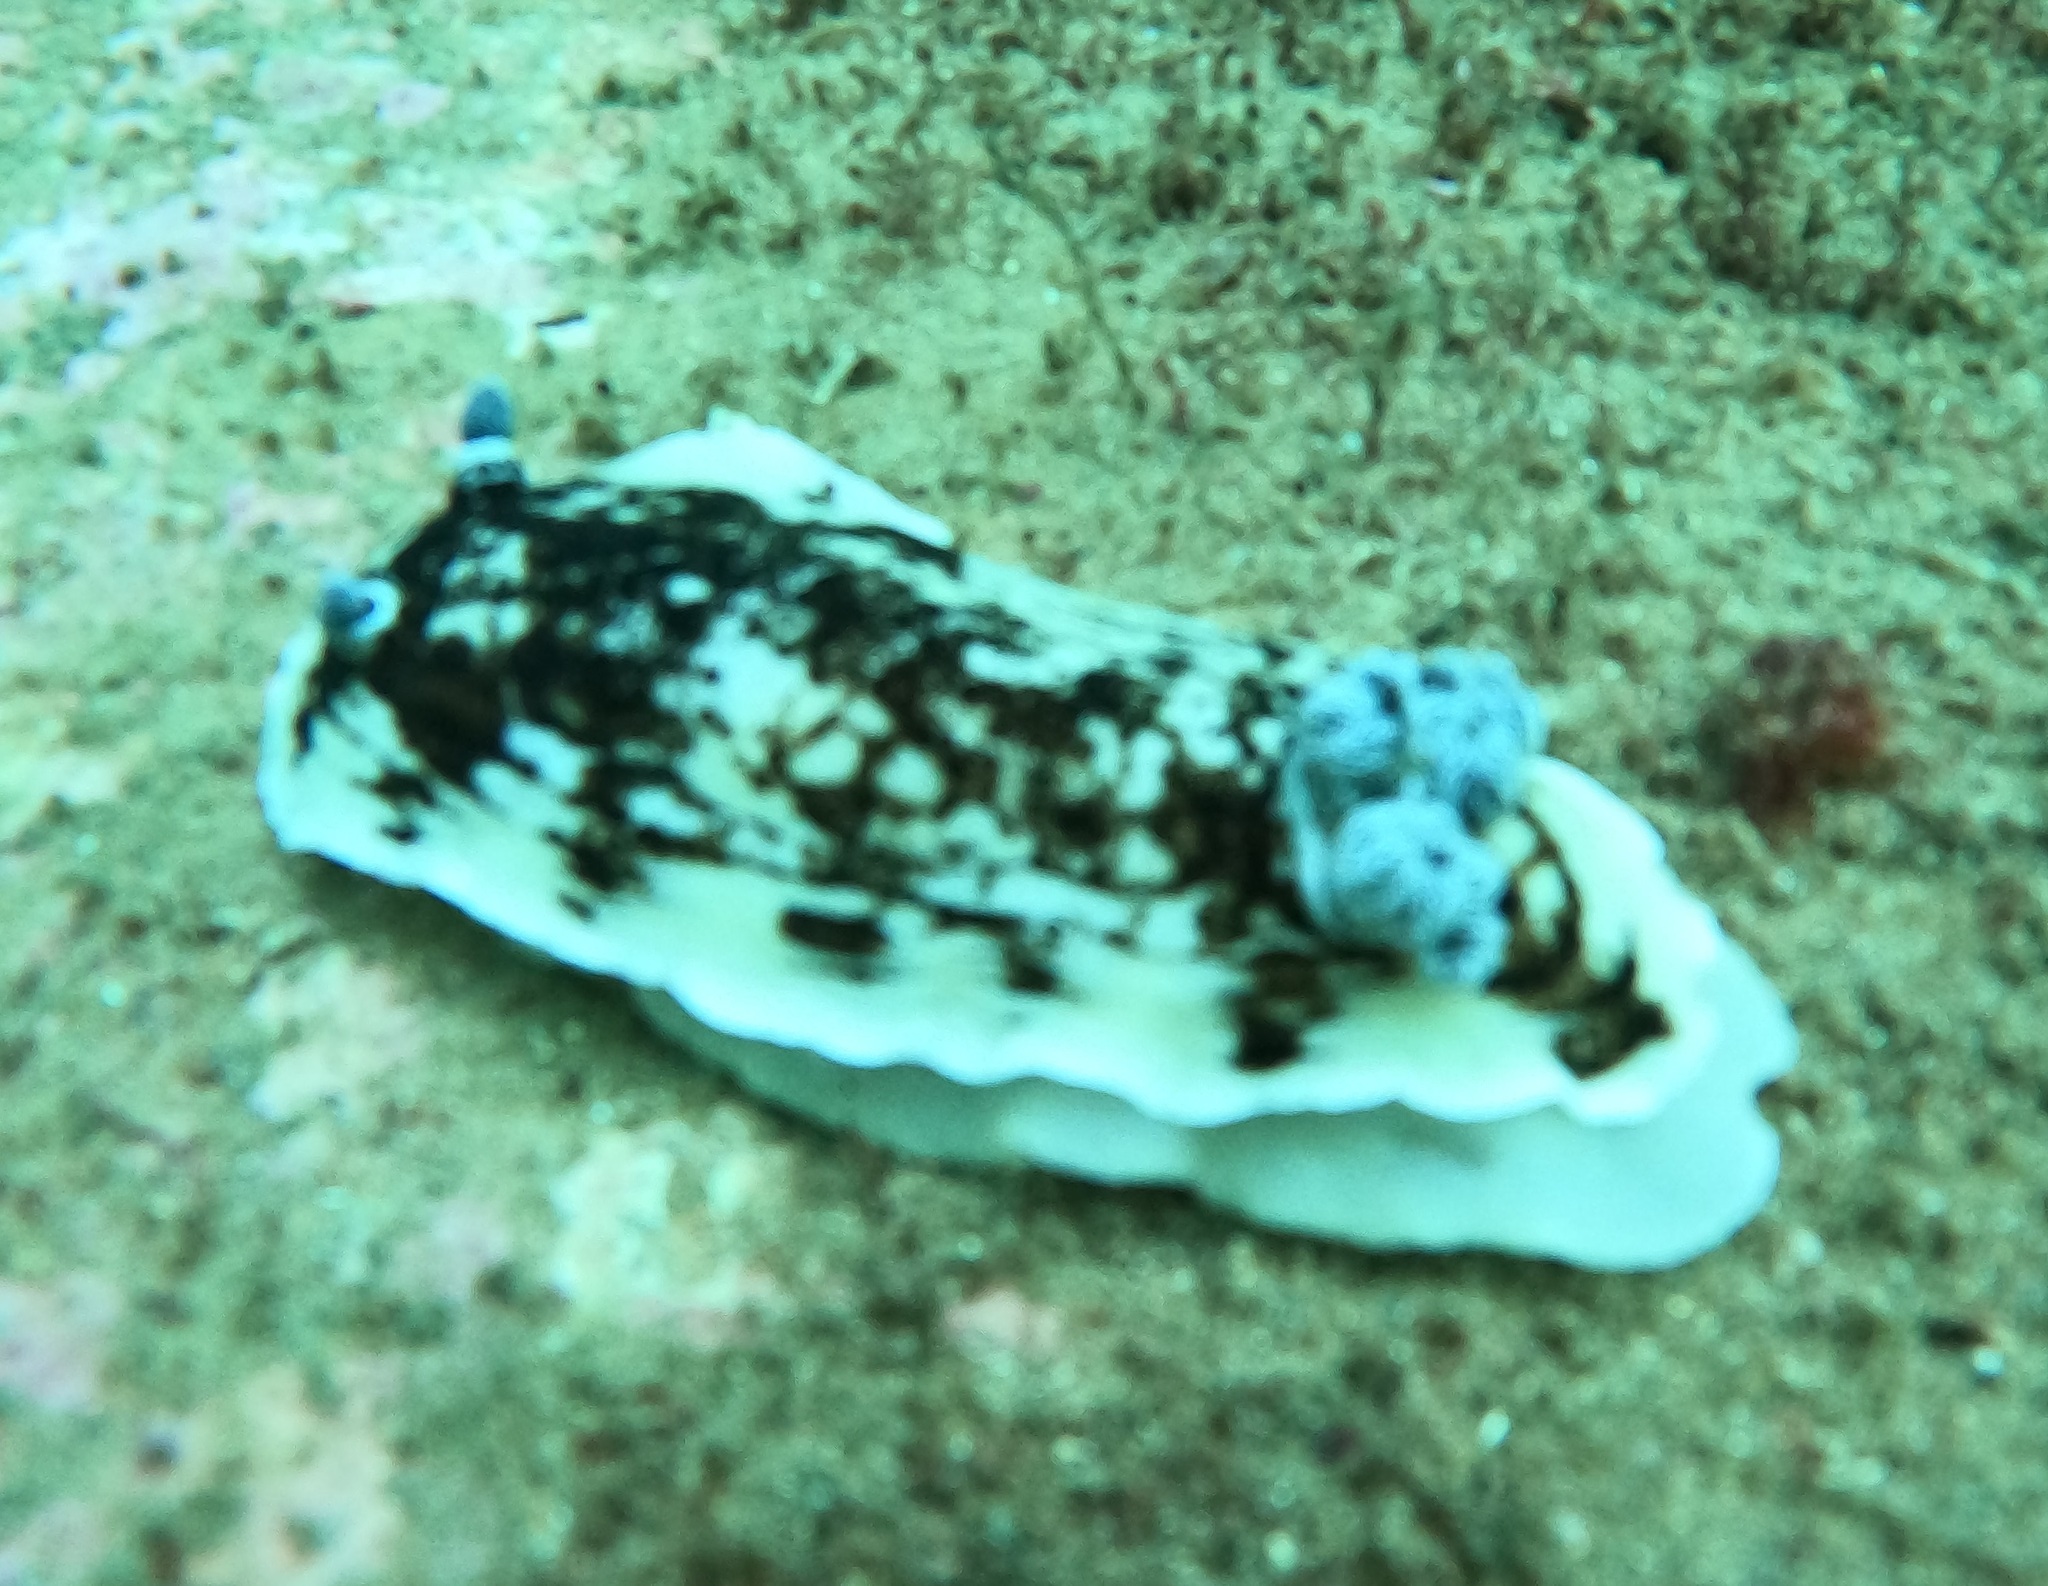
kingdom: Animalia
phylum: Mollusca
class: Gastropoda
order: Nudibranchia
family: Dorididae
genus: Aphelodoris
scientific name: Aphelodoris varia
